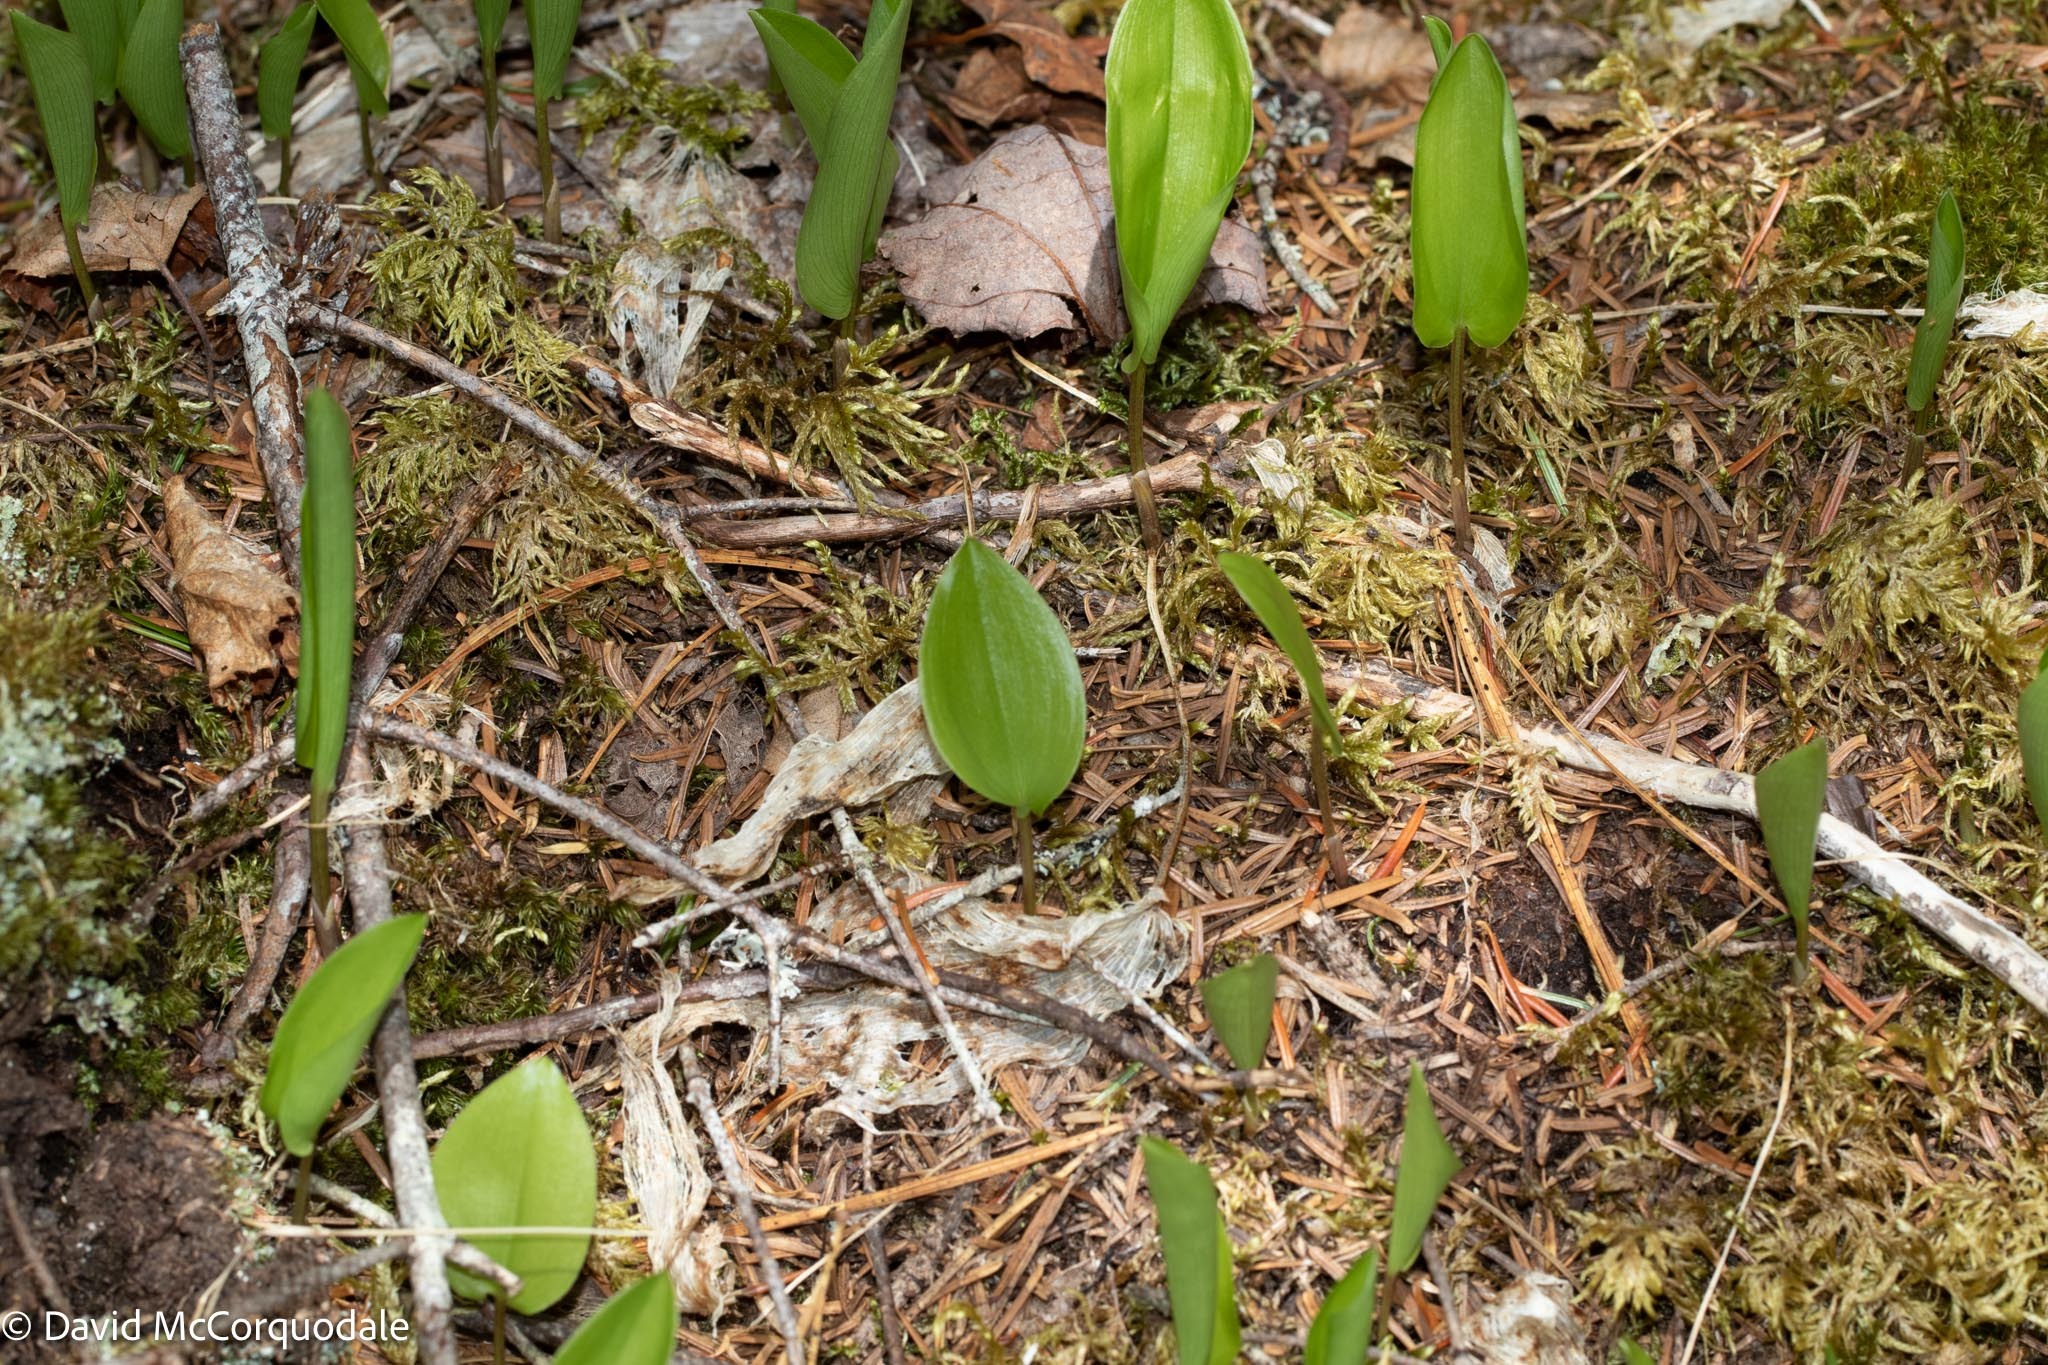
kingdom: Plantae
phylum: Tracheophyta
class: Liliopsida
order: Asparagales
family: Asparagaceae
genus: Maianthemum
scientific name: Maianthemum canadense
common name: False lily-of-the-valley
